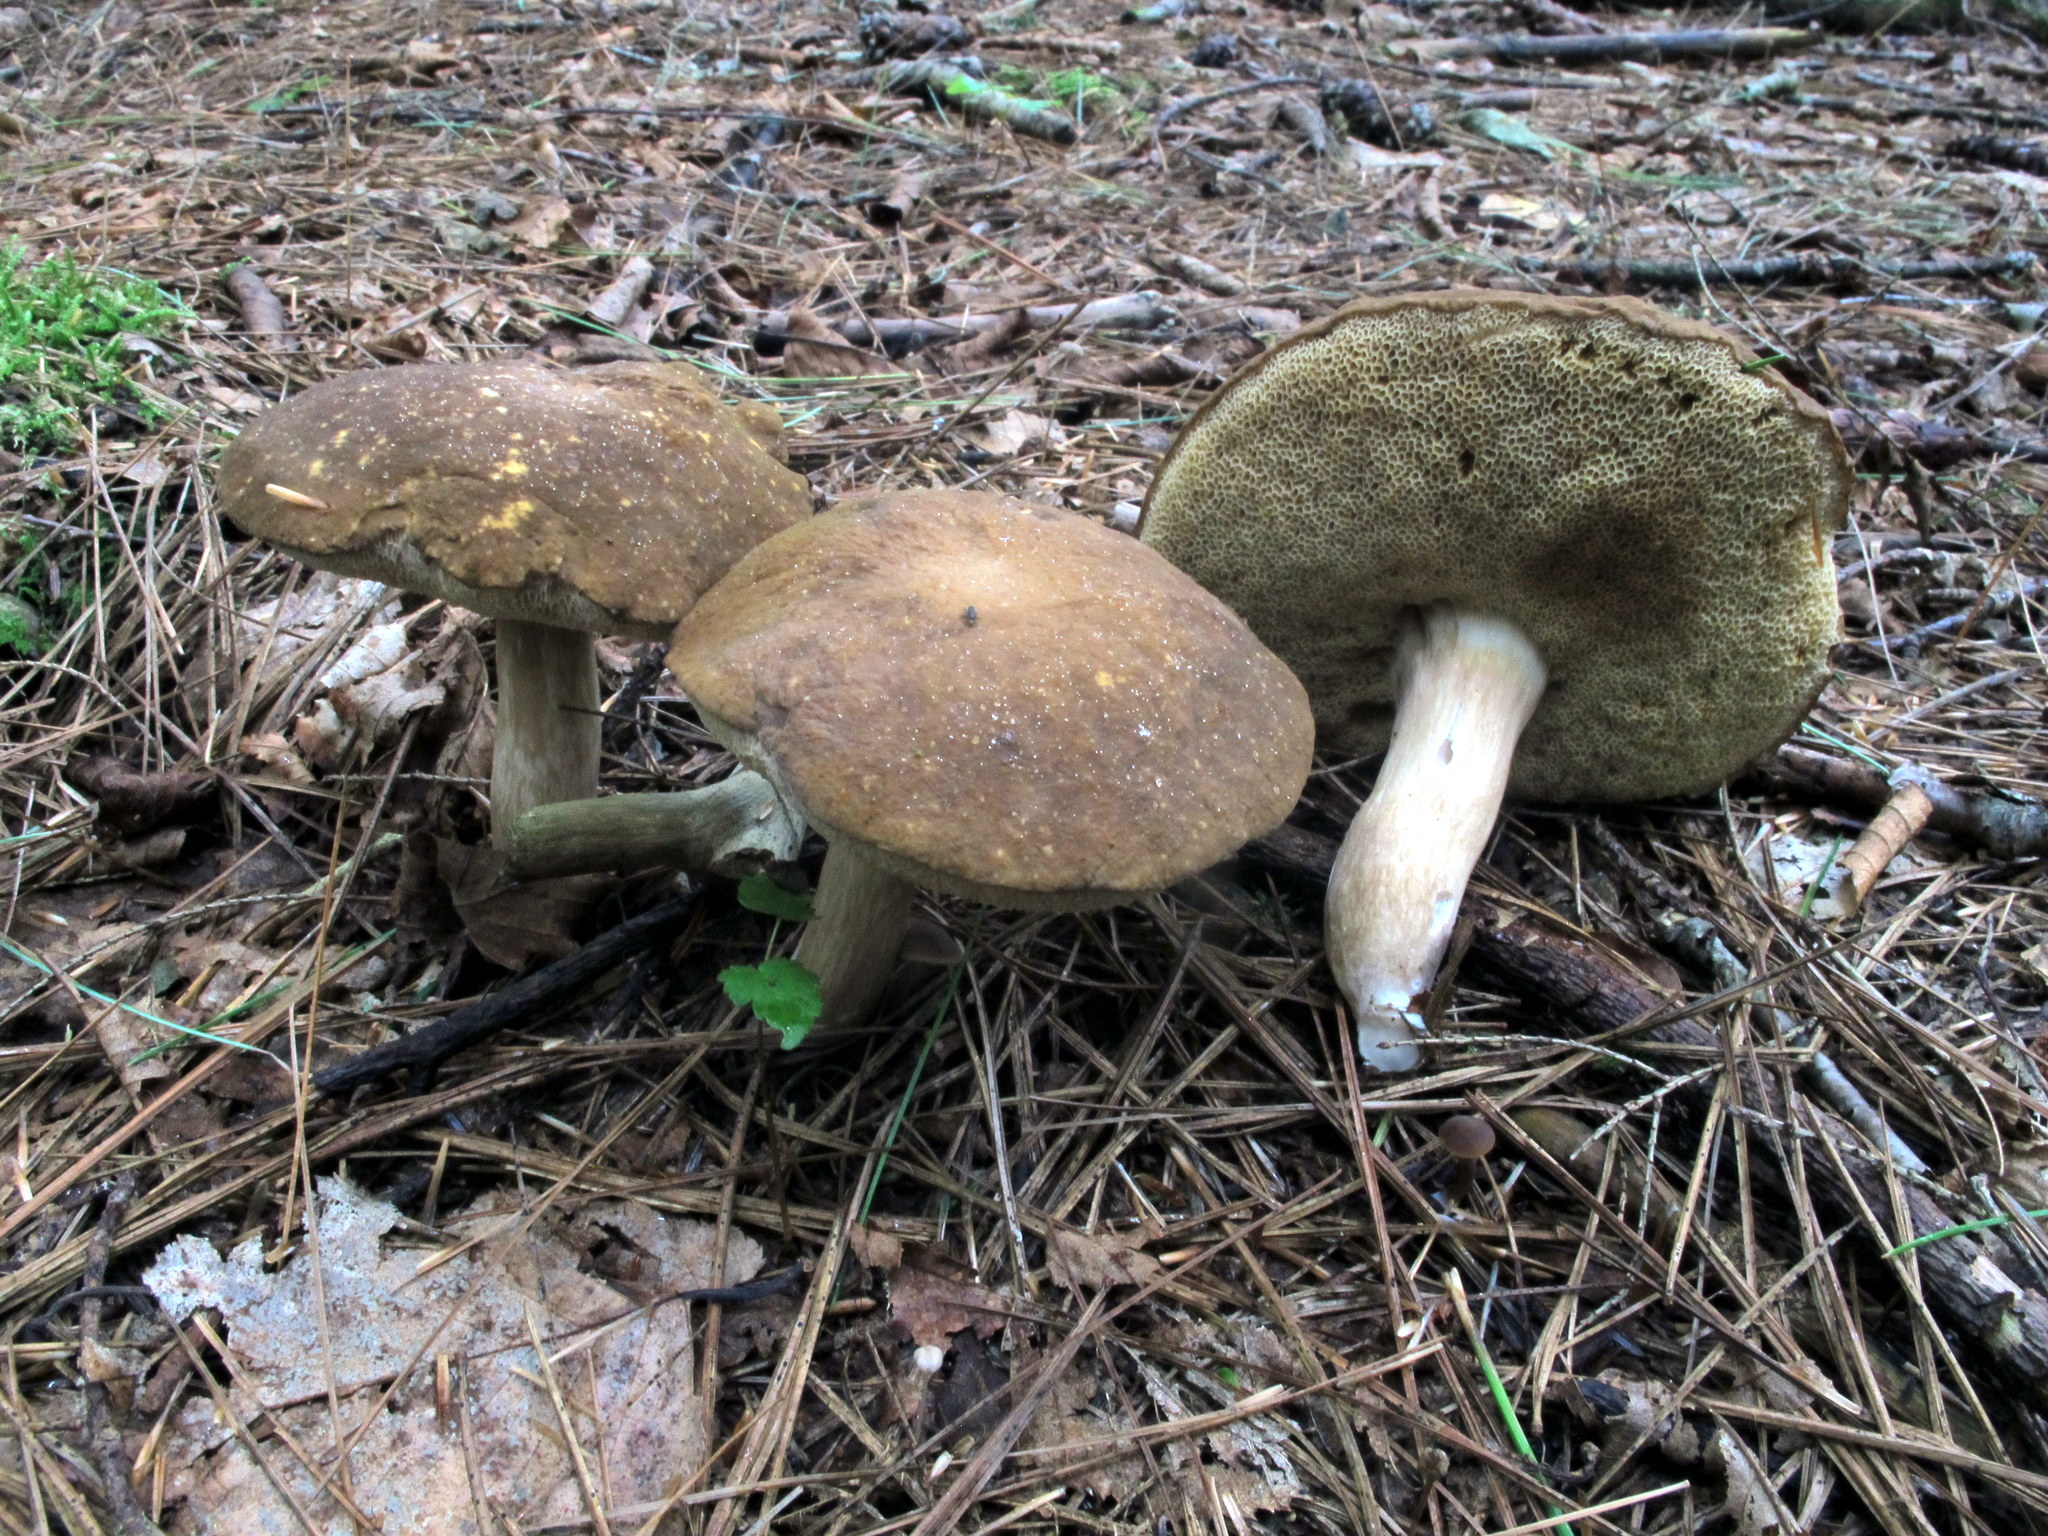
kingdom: Fungi
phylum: Basidiomycota
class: Agaricomycetes
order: Boletales
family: Boletaceae
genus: Xanthoconium
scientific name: Xanthoconium affine
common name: Spotted bolete
